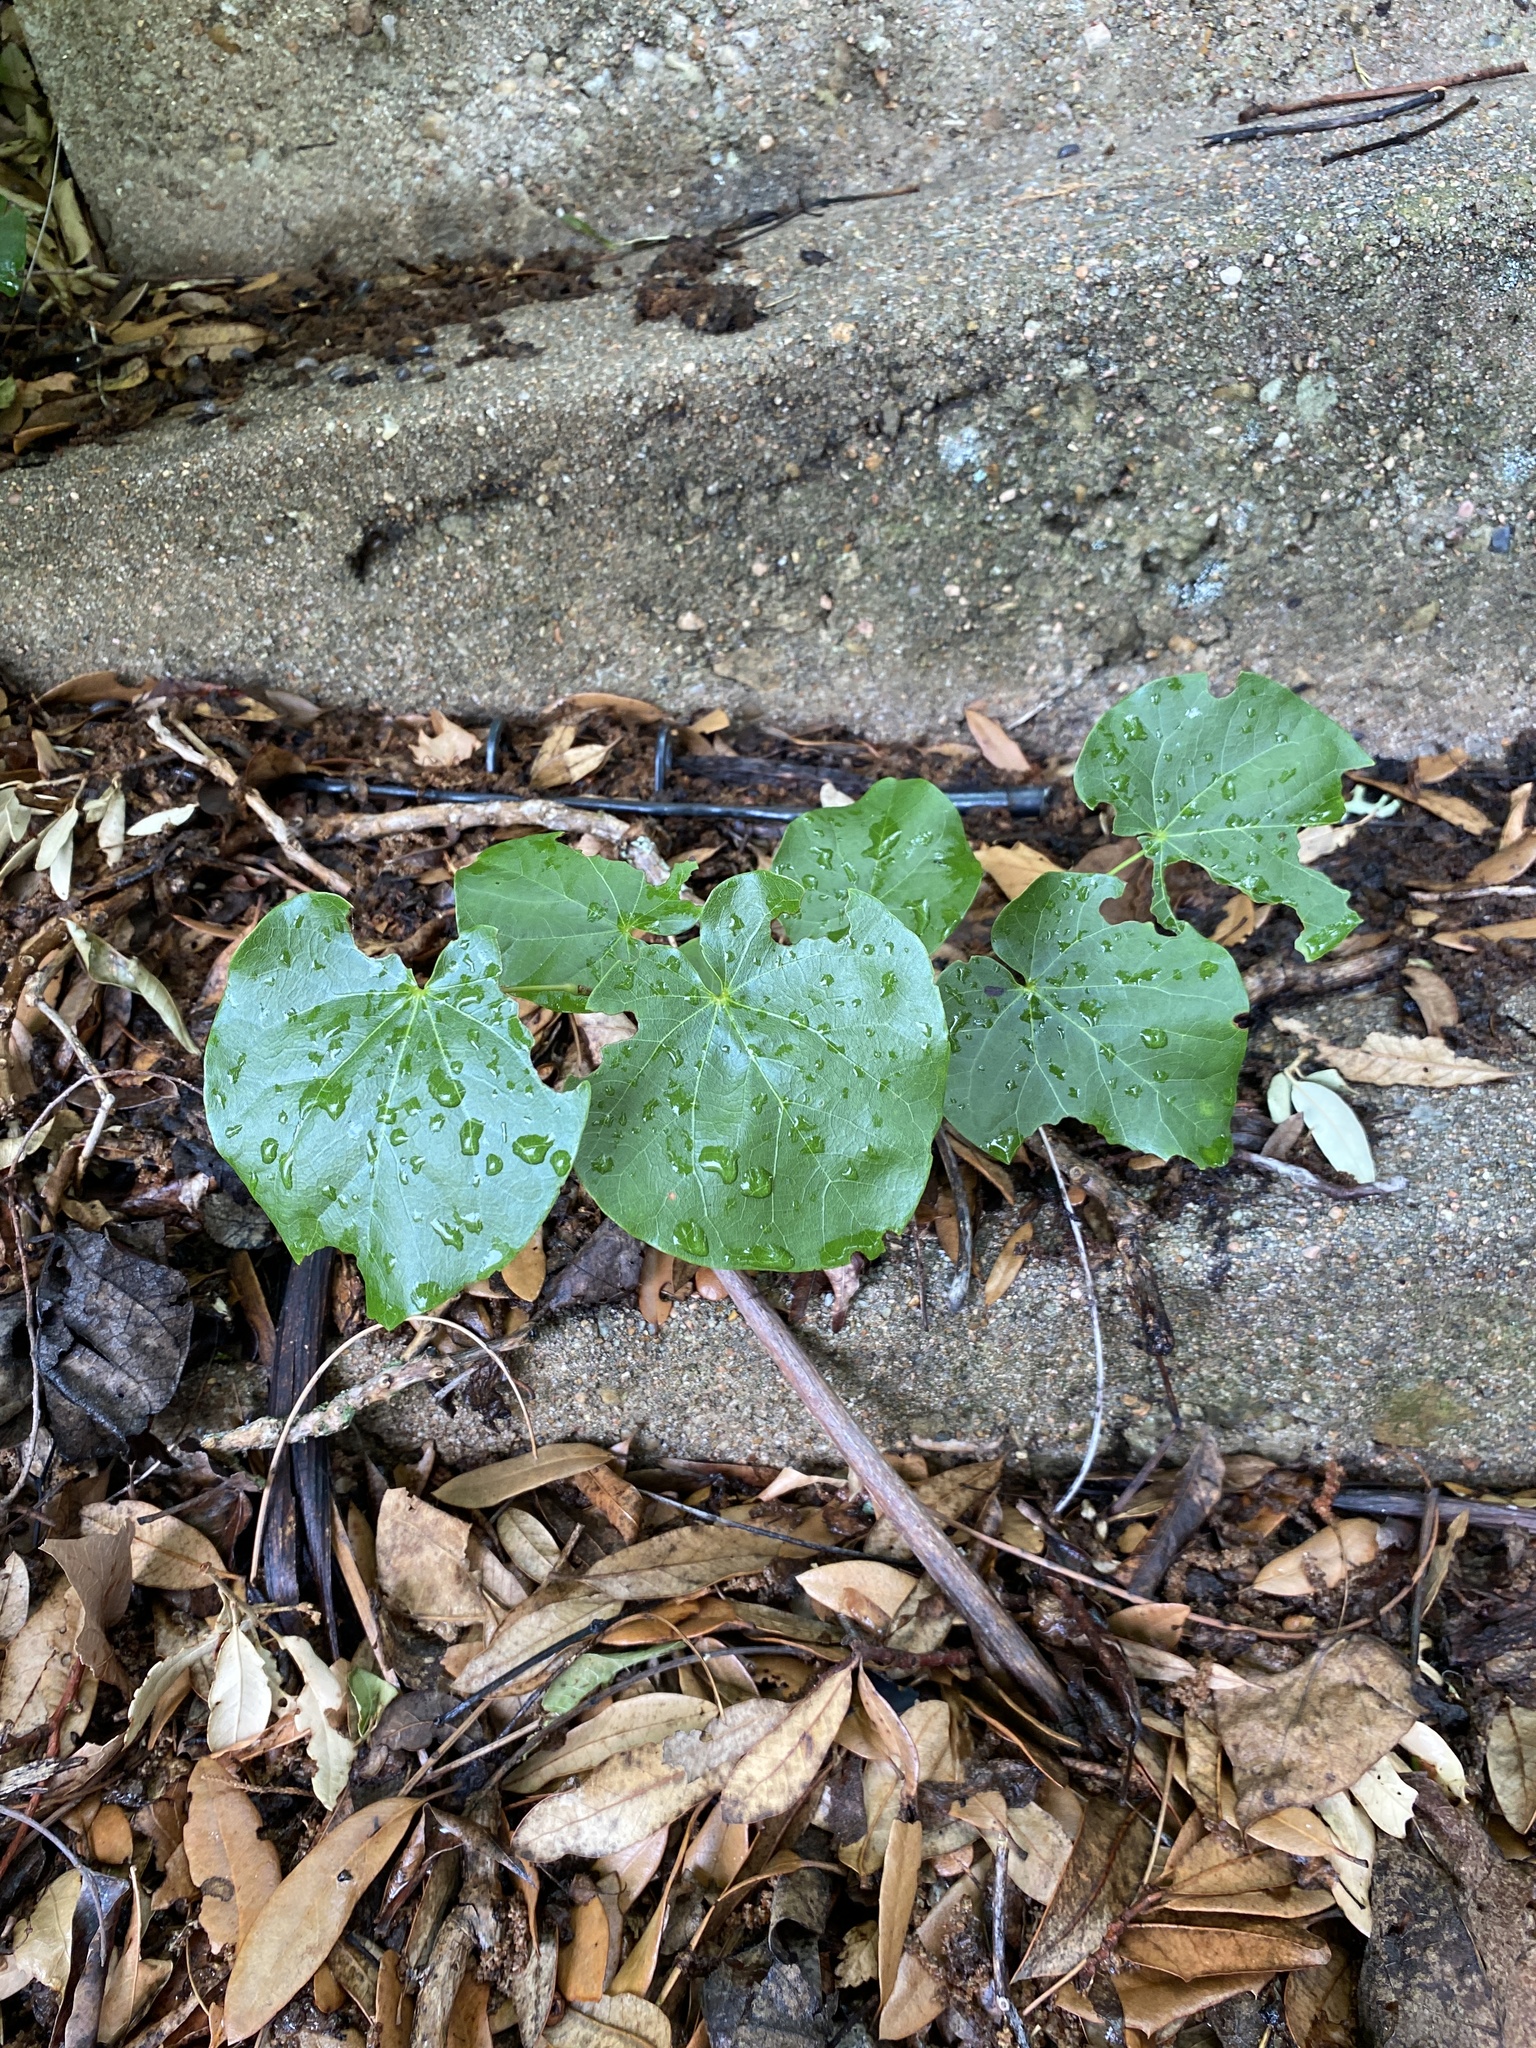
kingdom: Plantae
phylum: Tracheophyta
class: Magnoliopsida
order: Fabales
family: Fabaceae
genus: Cercis
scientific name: Cercis canadensis
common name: Eastern redbud
